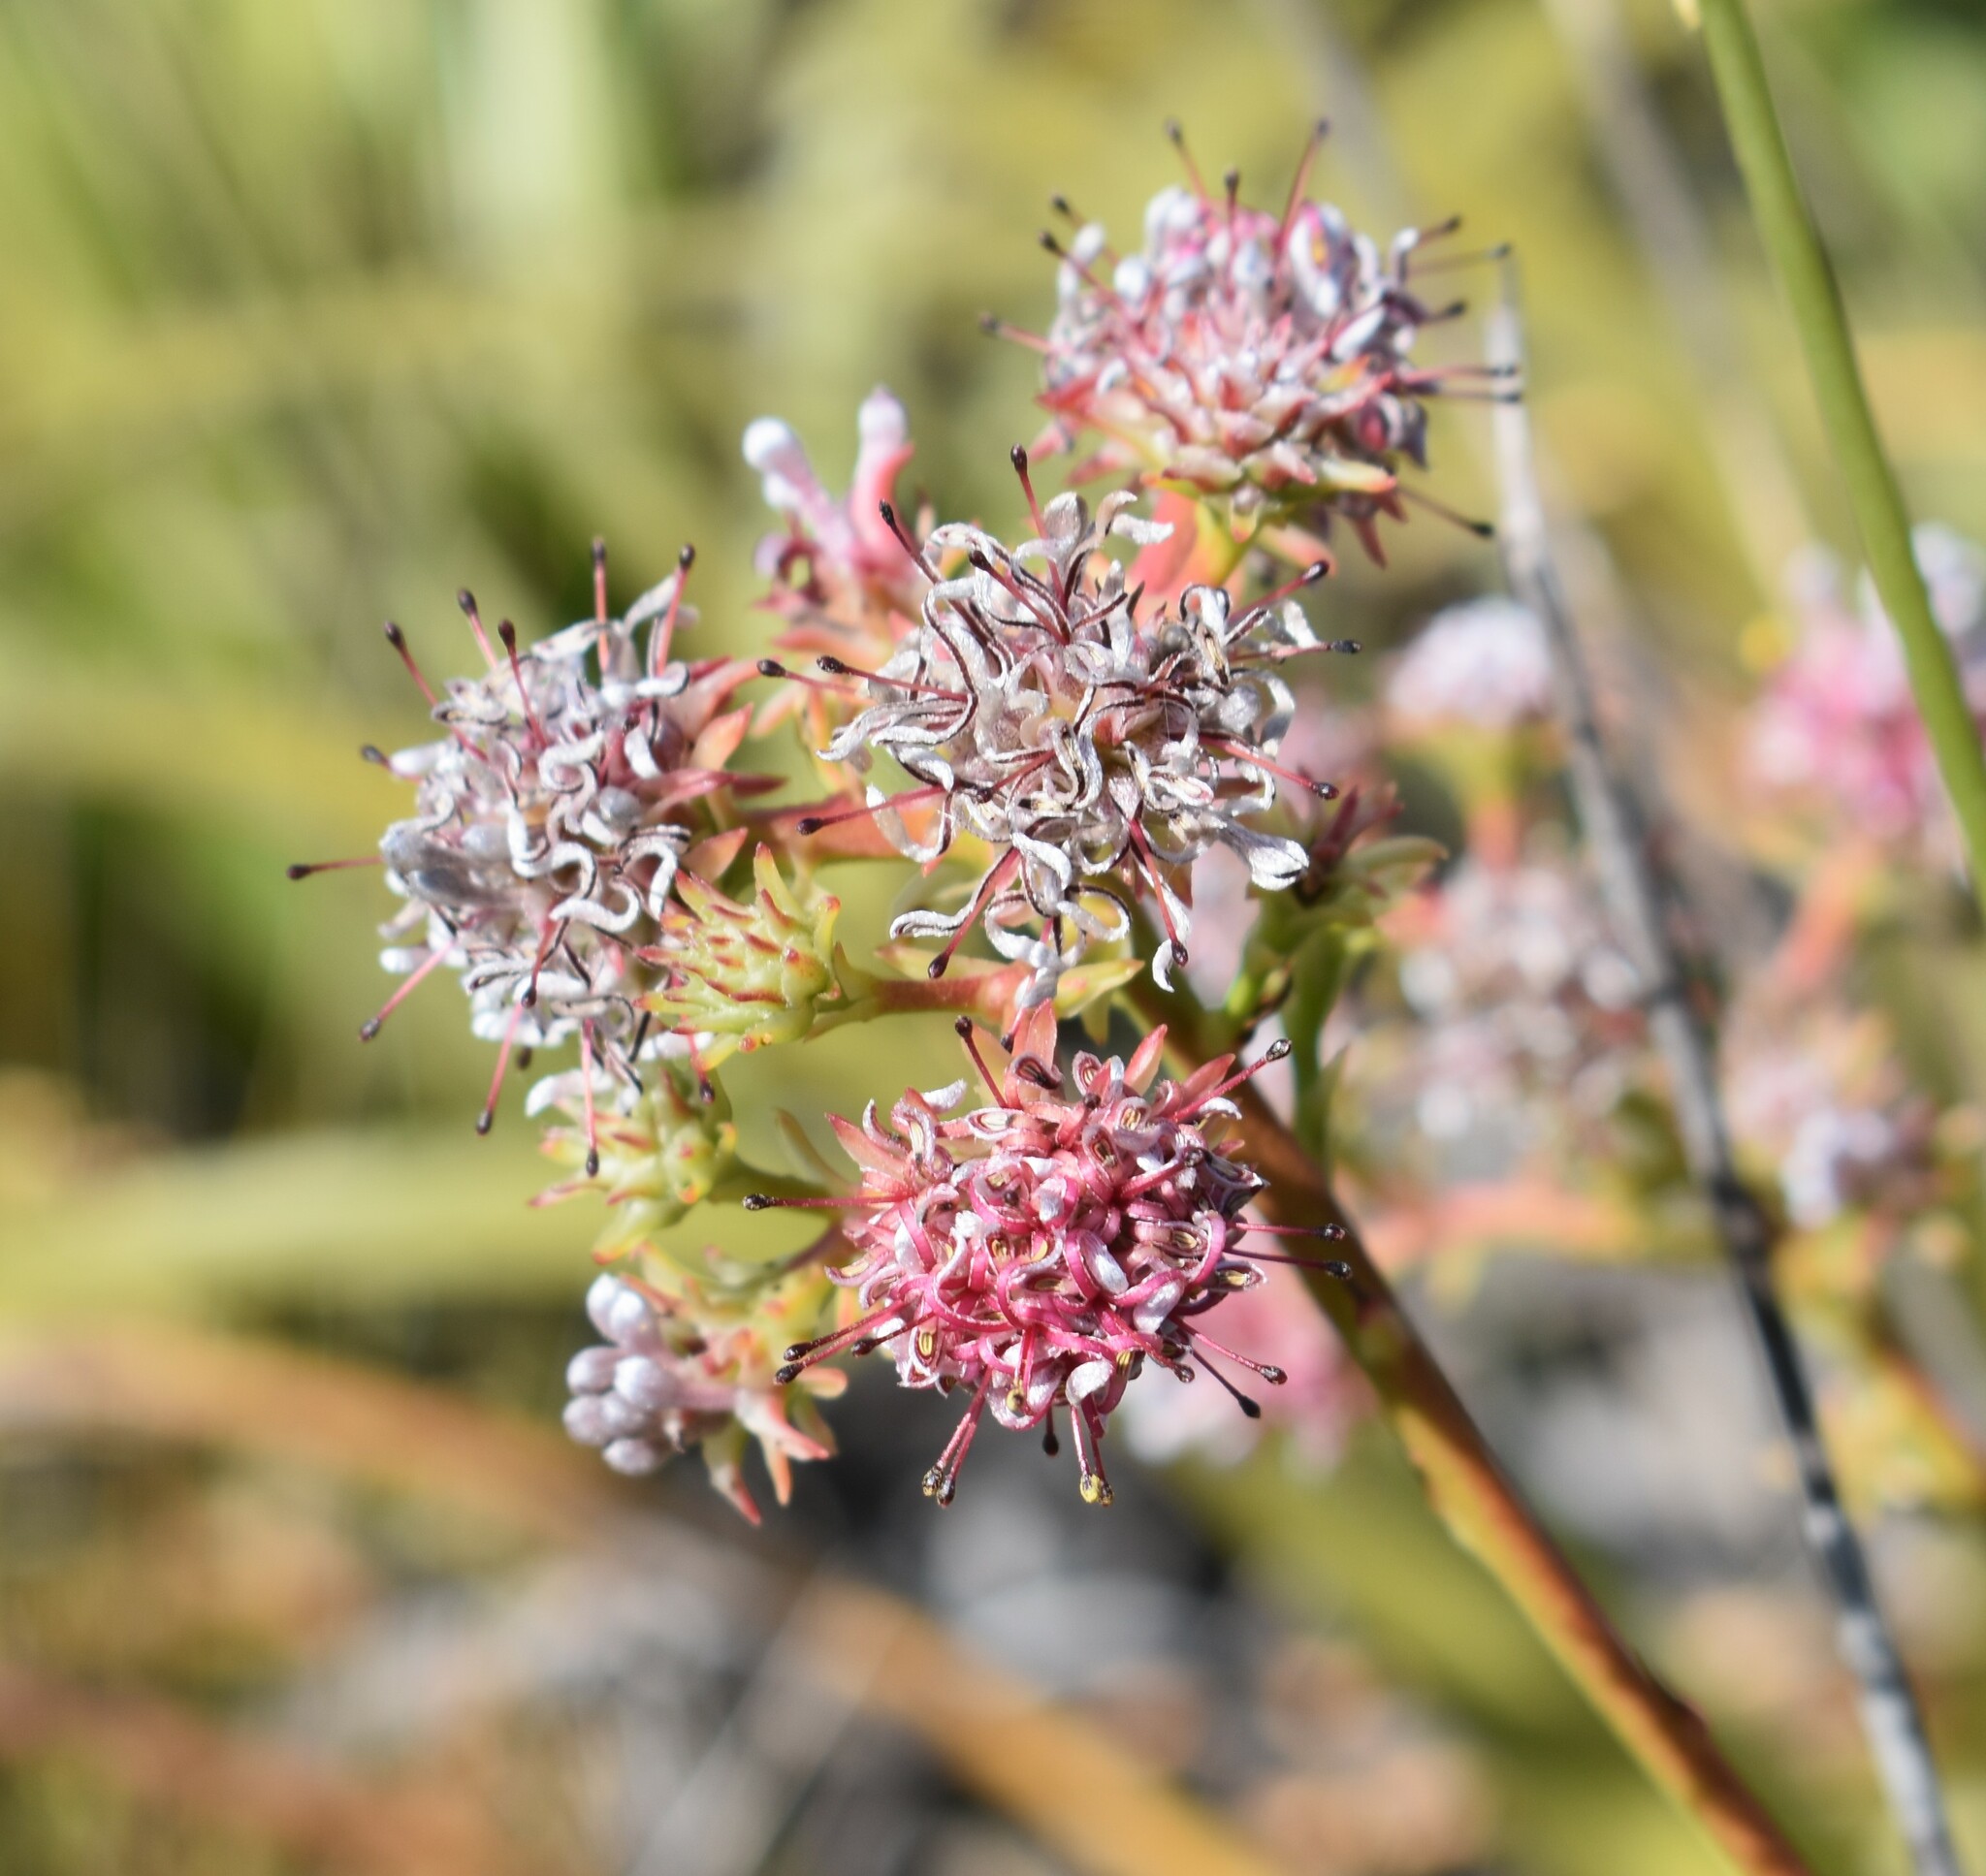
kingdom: Plantae
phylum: Tracheophyta
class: Magnoliopsida
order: Proteales
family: Proteaceae
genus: Serruria
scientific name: Serruria elongata
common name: Long-stalk spiderhead
